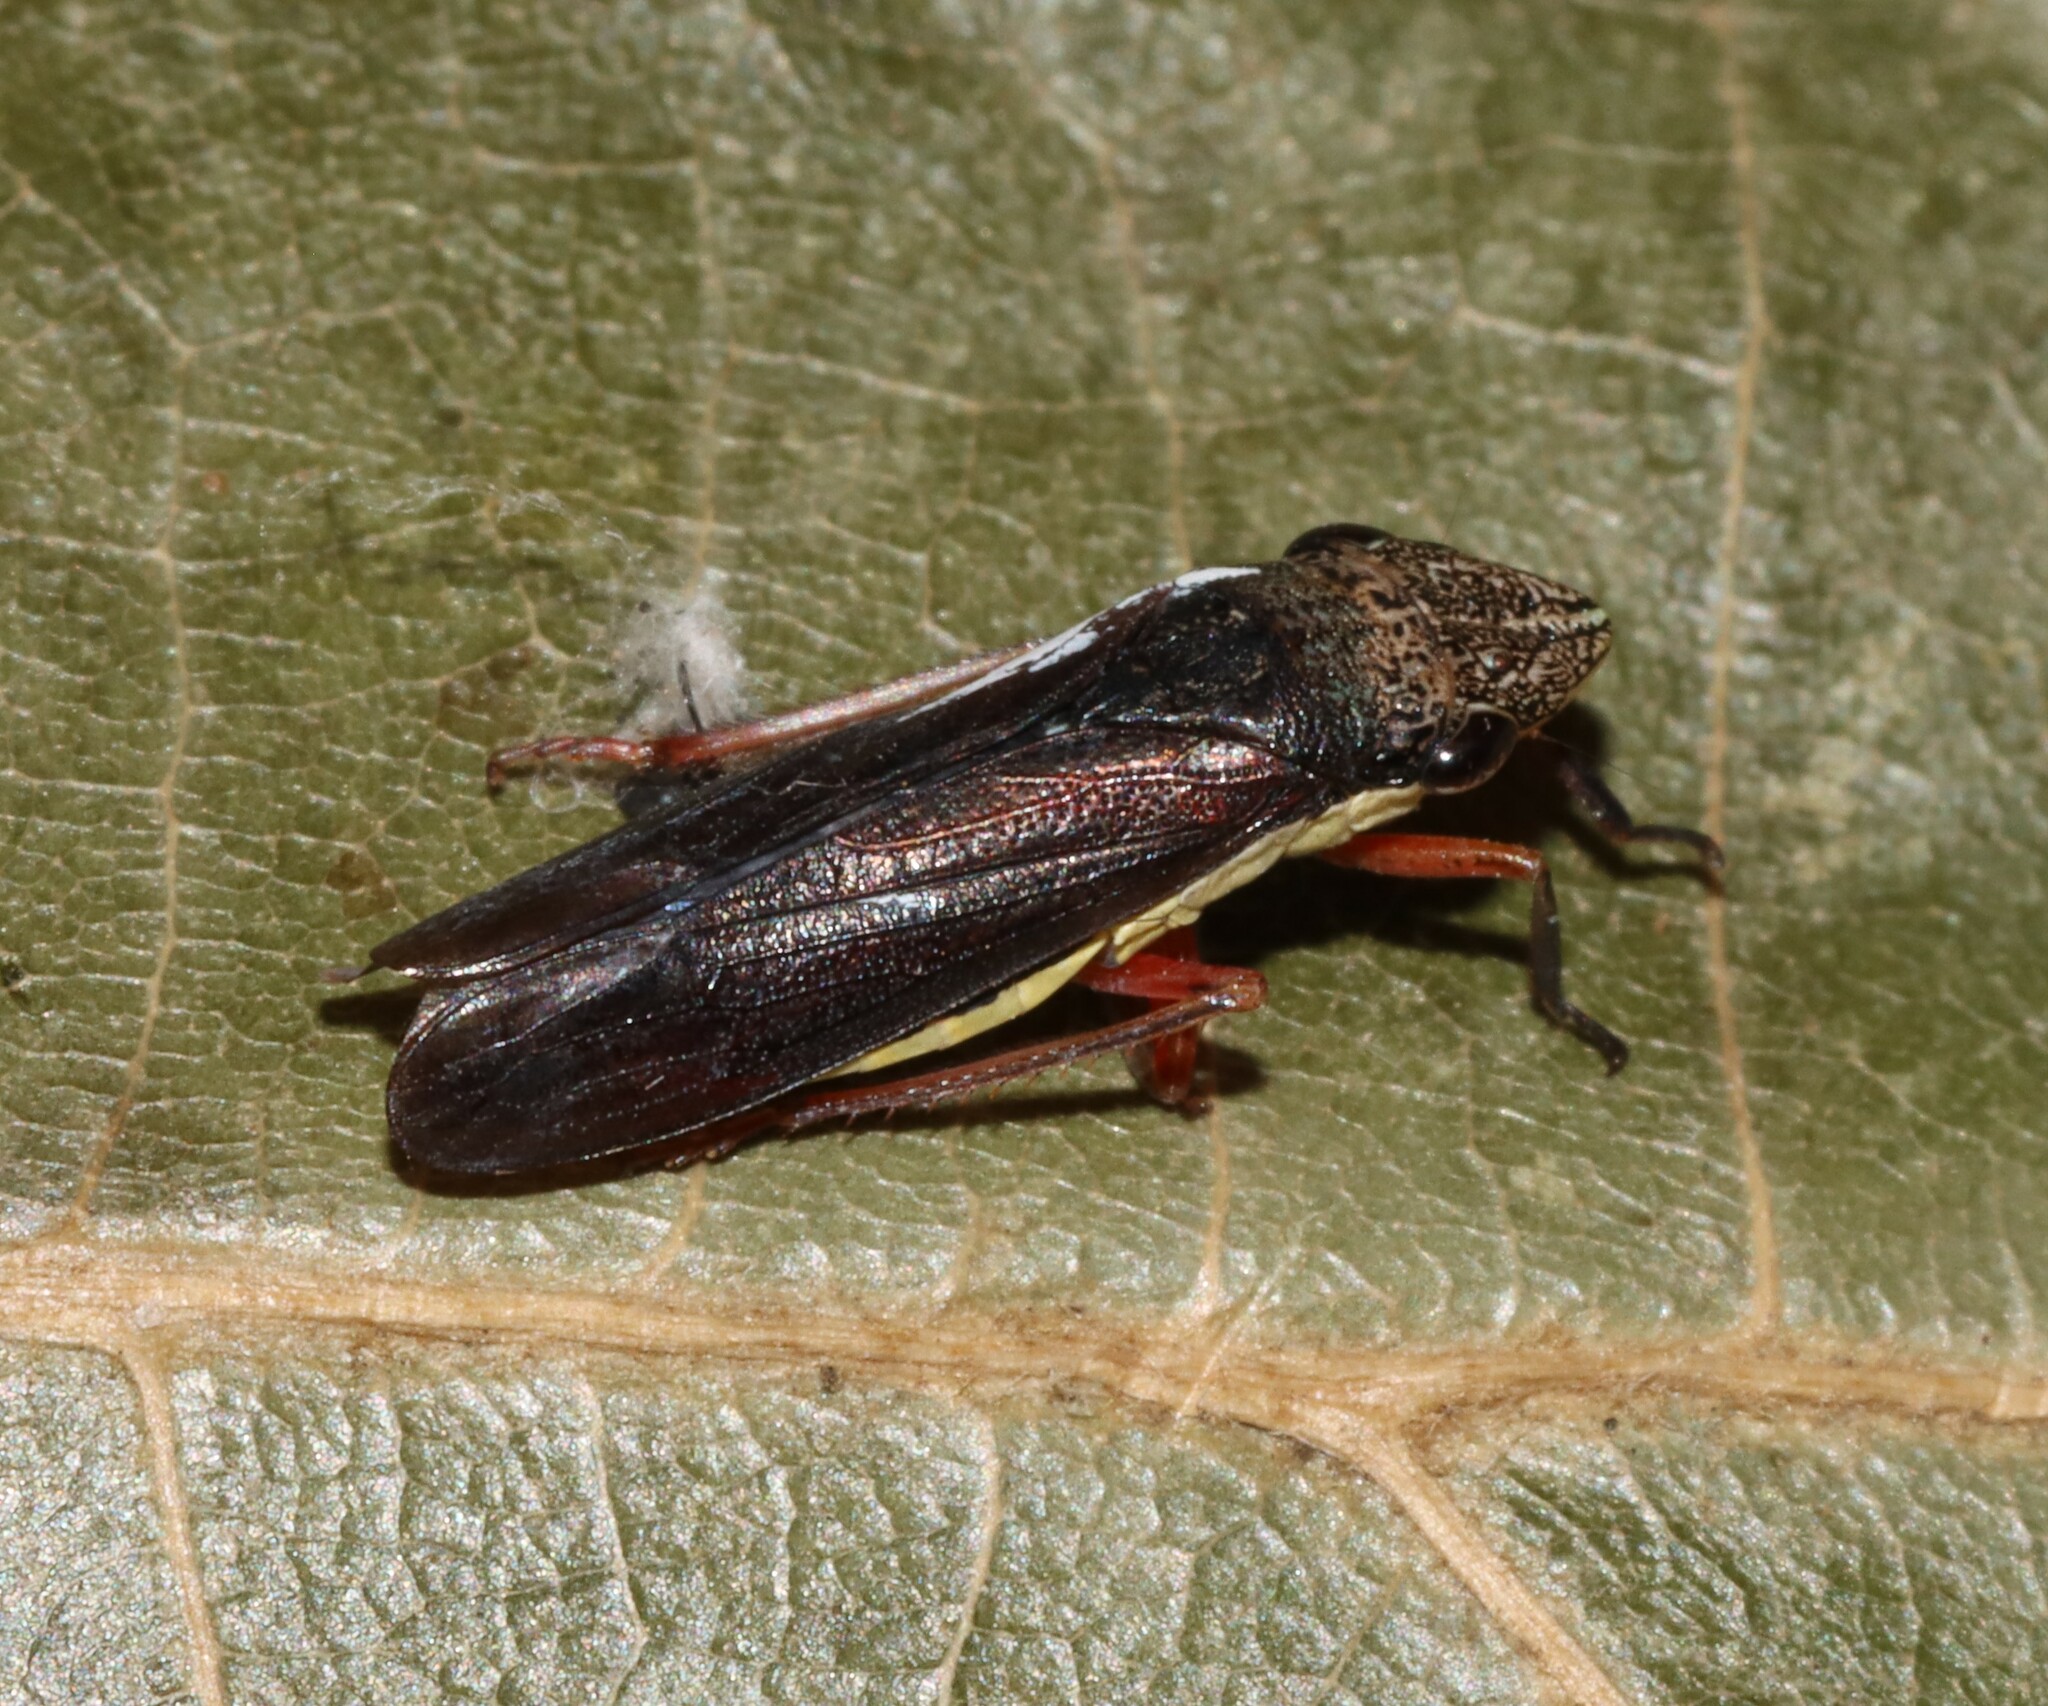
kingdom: Animalia
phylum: Arthropoda
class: Insecta
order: Hemiptera
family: Cicadellidae
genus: Homalodisca
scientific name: Homalodisca insolita
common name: Johnson grass sharpshooter
